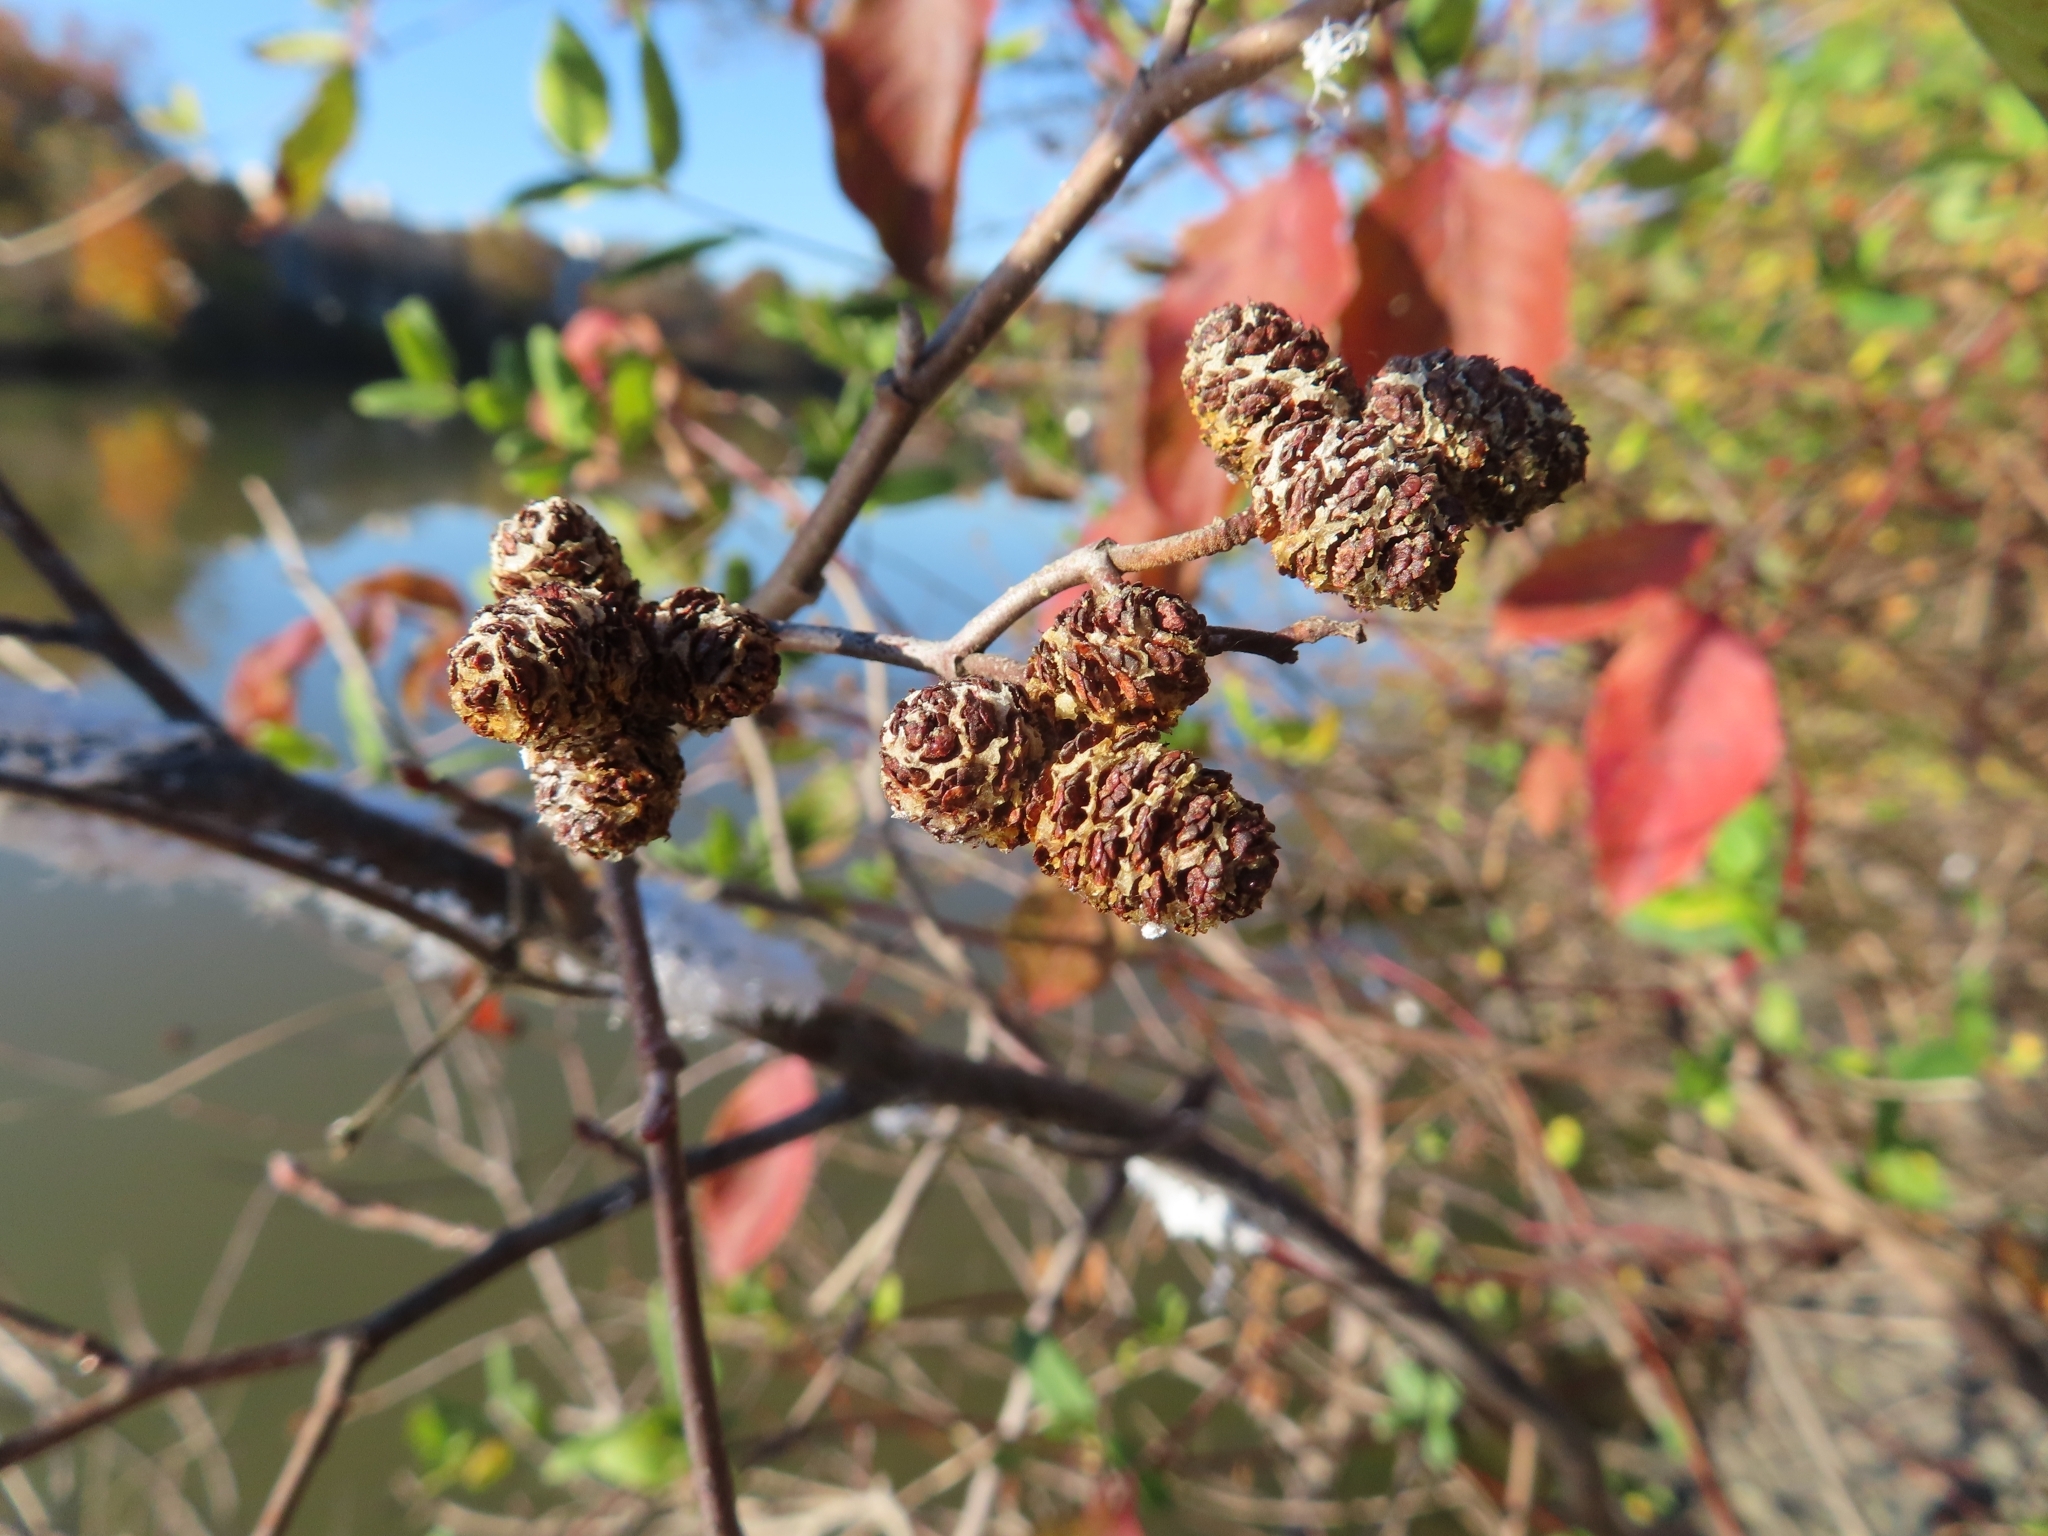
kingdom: Plantae
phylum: Tracheophyta
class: Magnoliopsida
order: Fagales
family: Betulaceae
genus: Alnus
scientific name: Alnus serrulata
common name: Hazel alder
